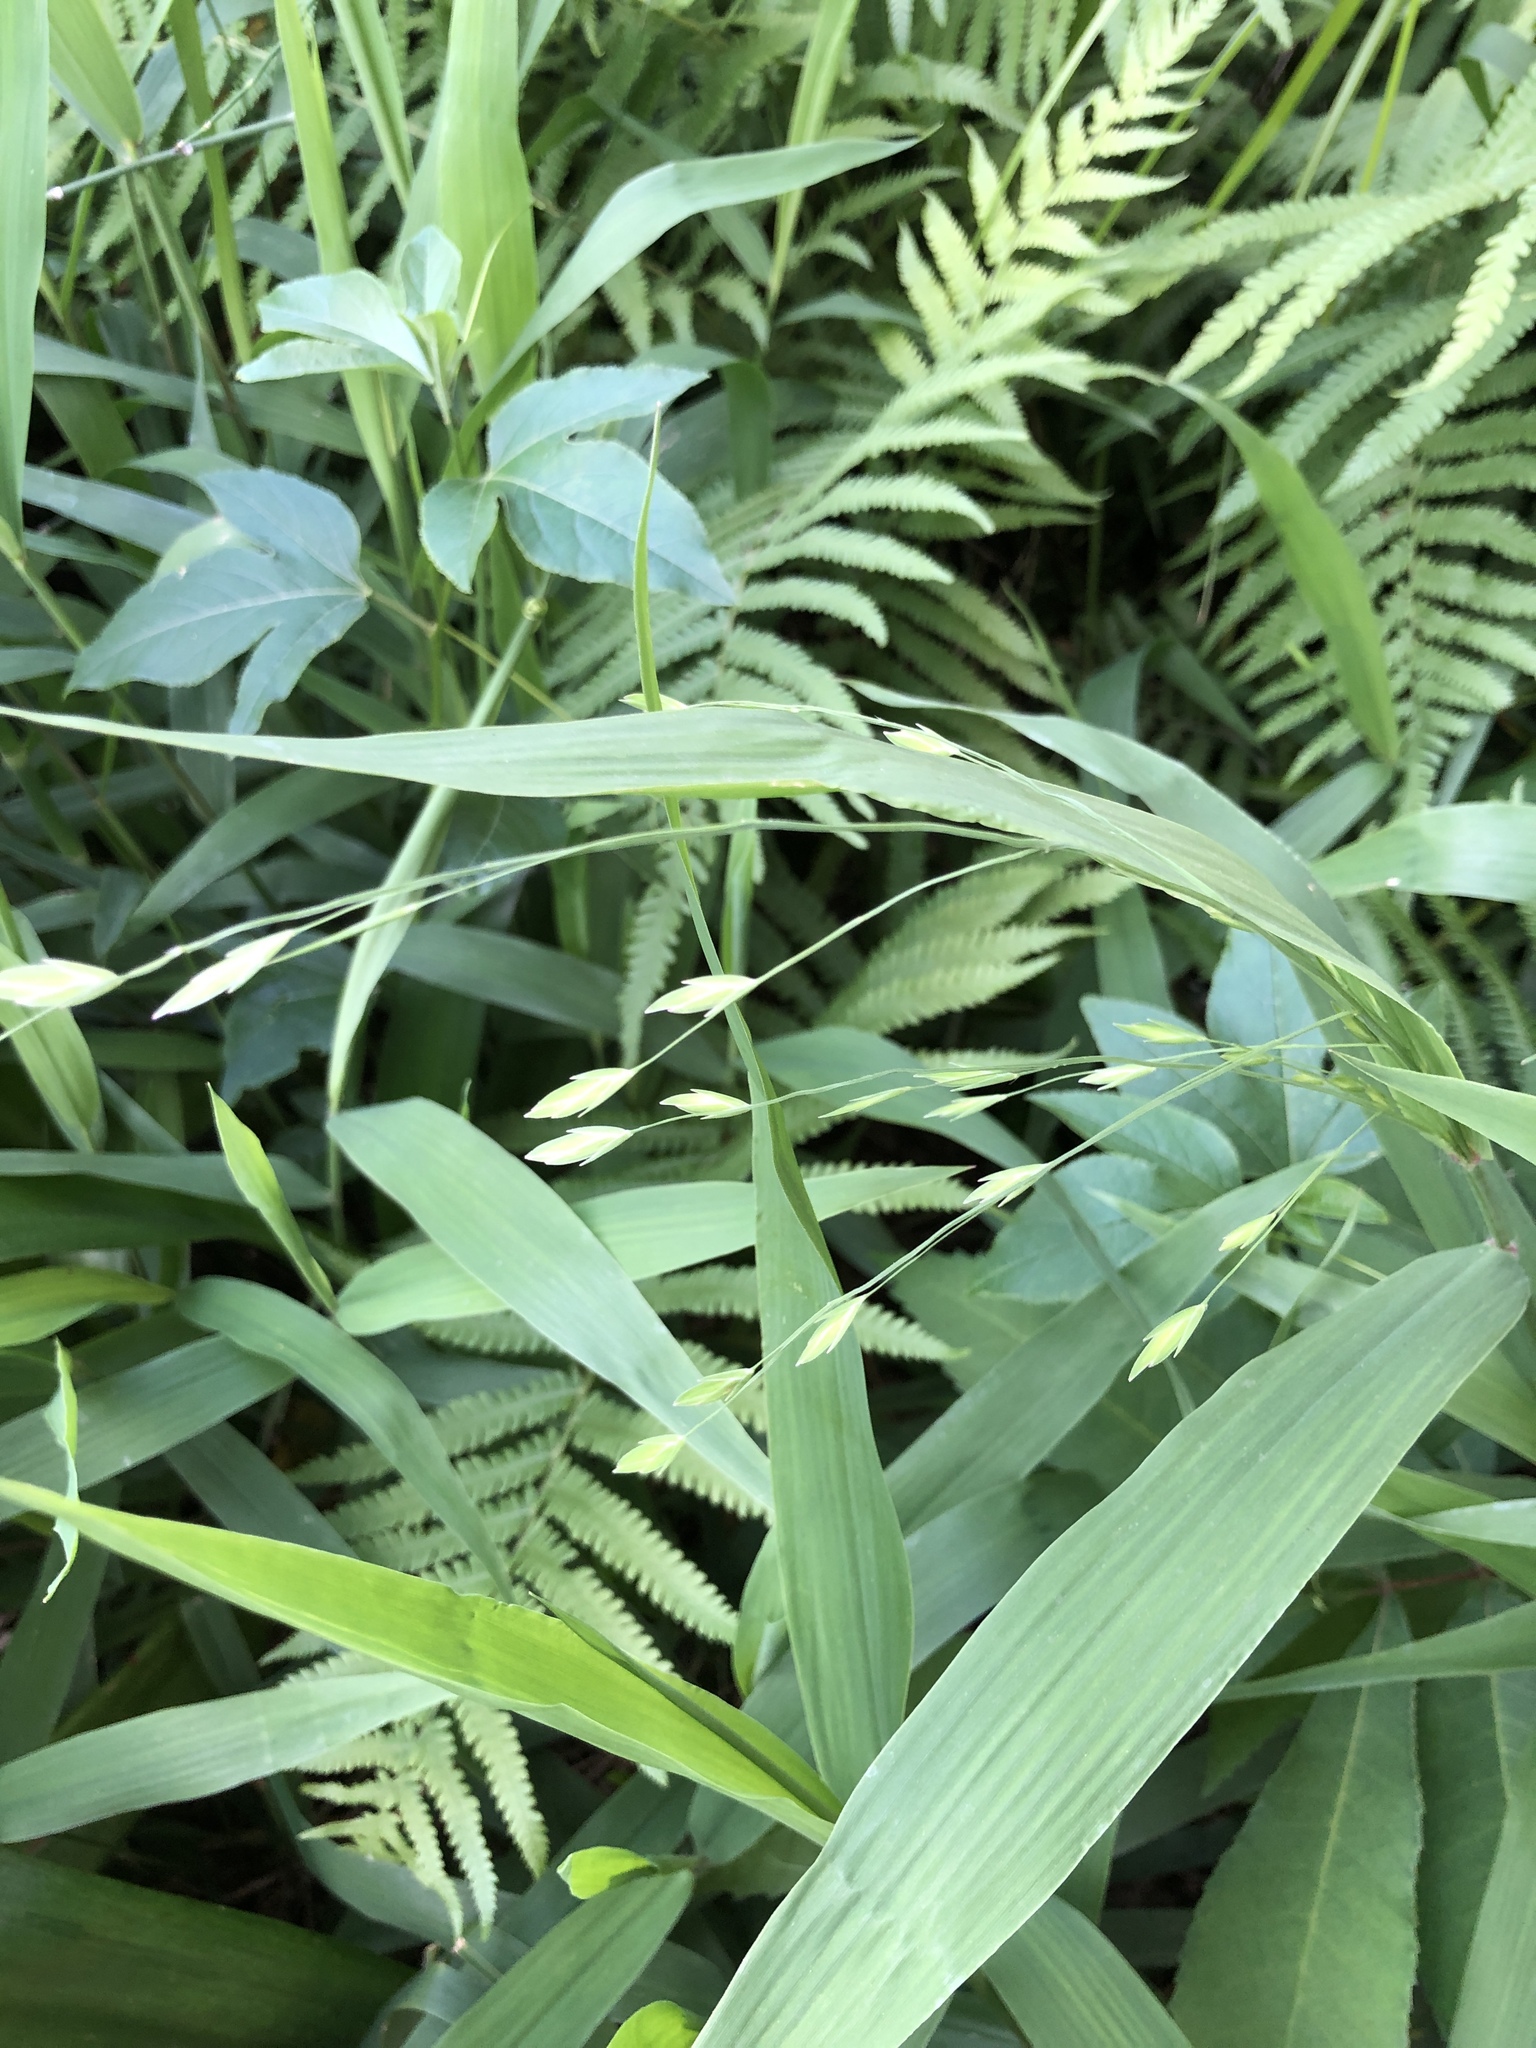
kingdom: Plantae
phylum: Tracheophyta
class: Liliopsida
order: Poales
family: Poaceae
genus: Chasmanthium
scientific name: Chasmanthium latifolium
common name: Broad-leaved chasmanthium
